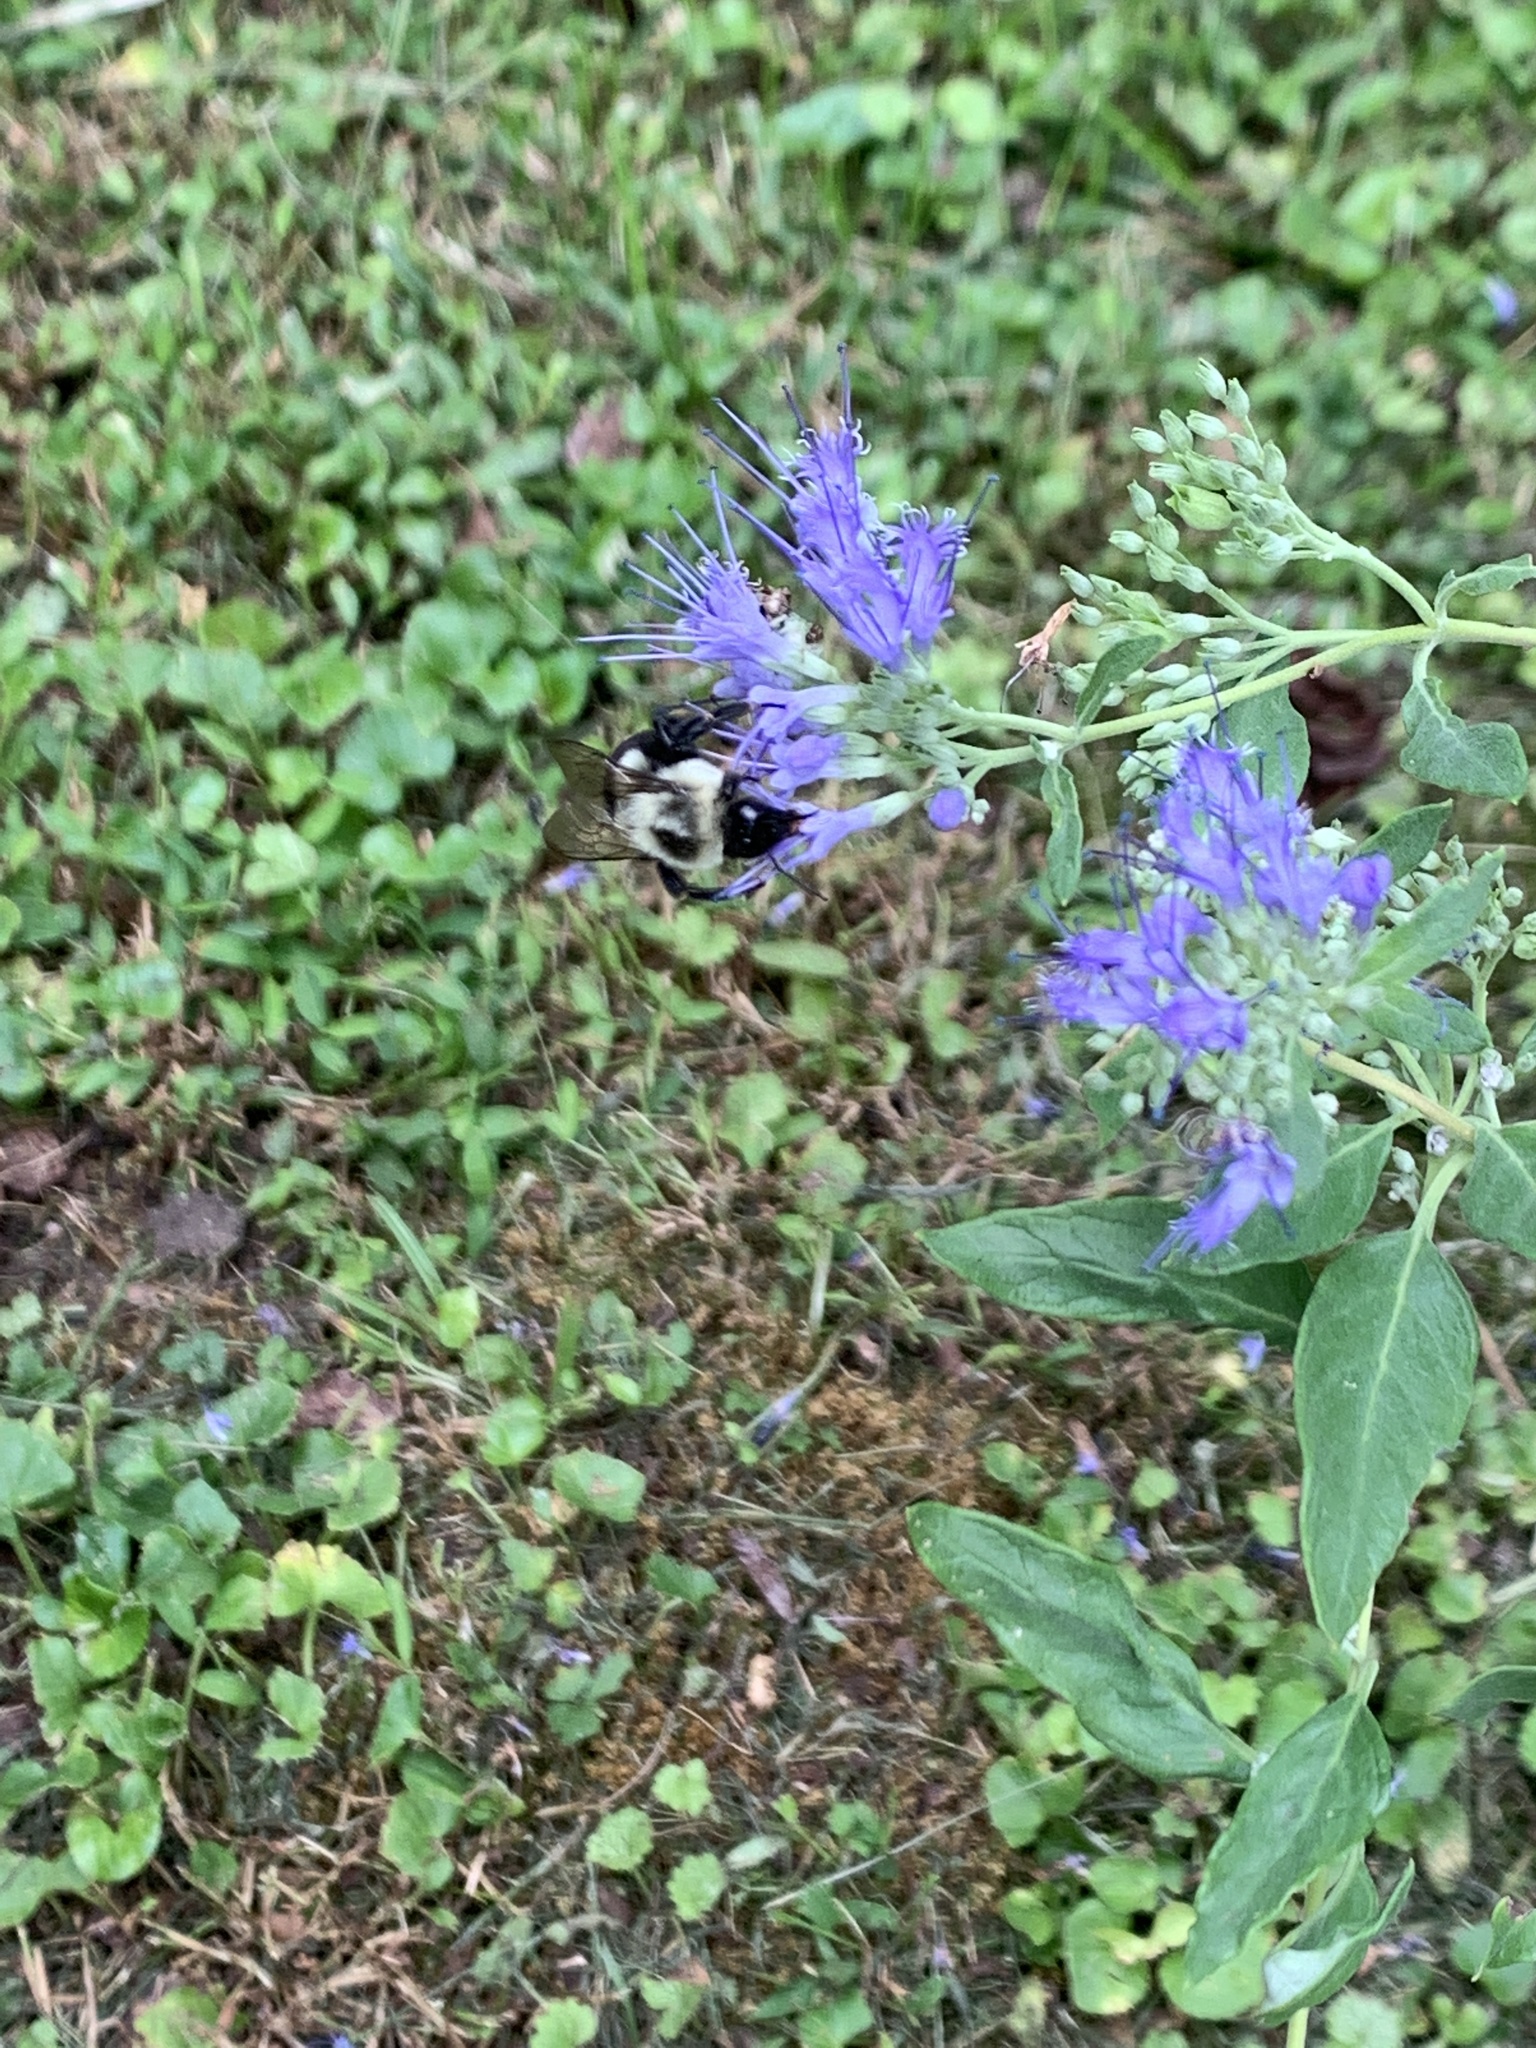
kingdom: Animalia
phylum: Arthropoda
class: Insecta
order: Hymenoptera
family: Apidae
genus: Bombus
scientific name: Bombus impatiens
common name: Common eastern bumble bee
